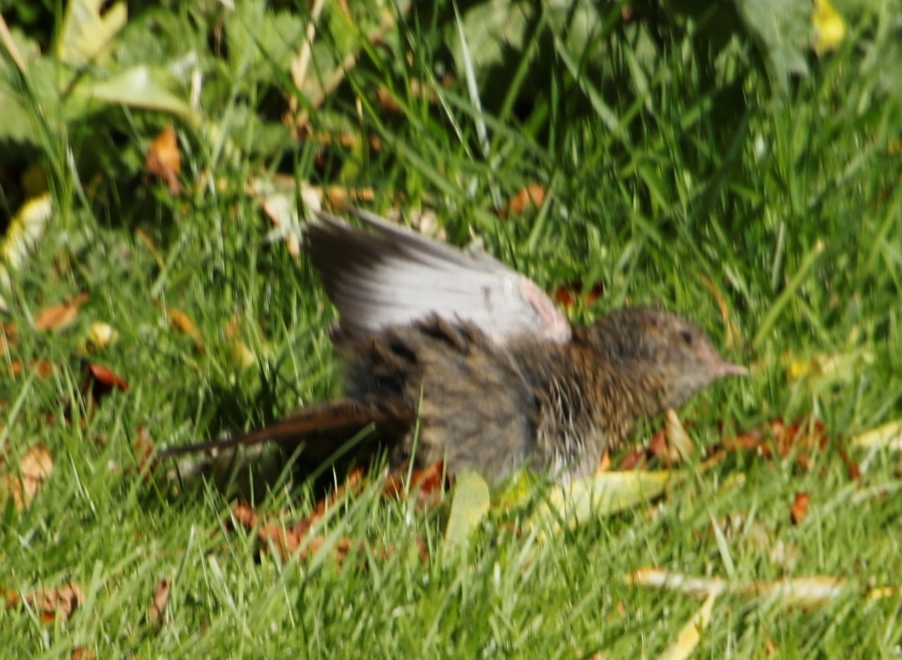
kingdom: Animalia
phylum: Chordata
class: Aves
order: Passeriformes
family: Prunellidae
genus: Prunella
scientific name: Prunella modularis
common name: Dunnock
